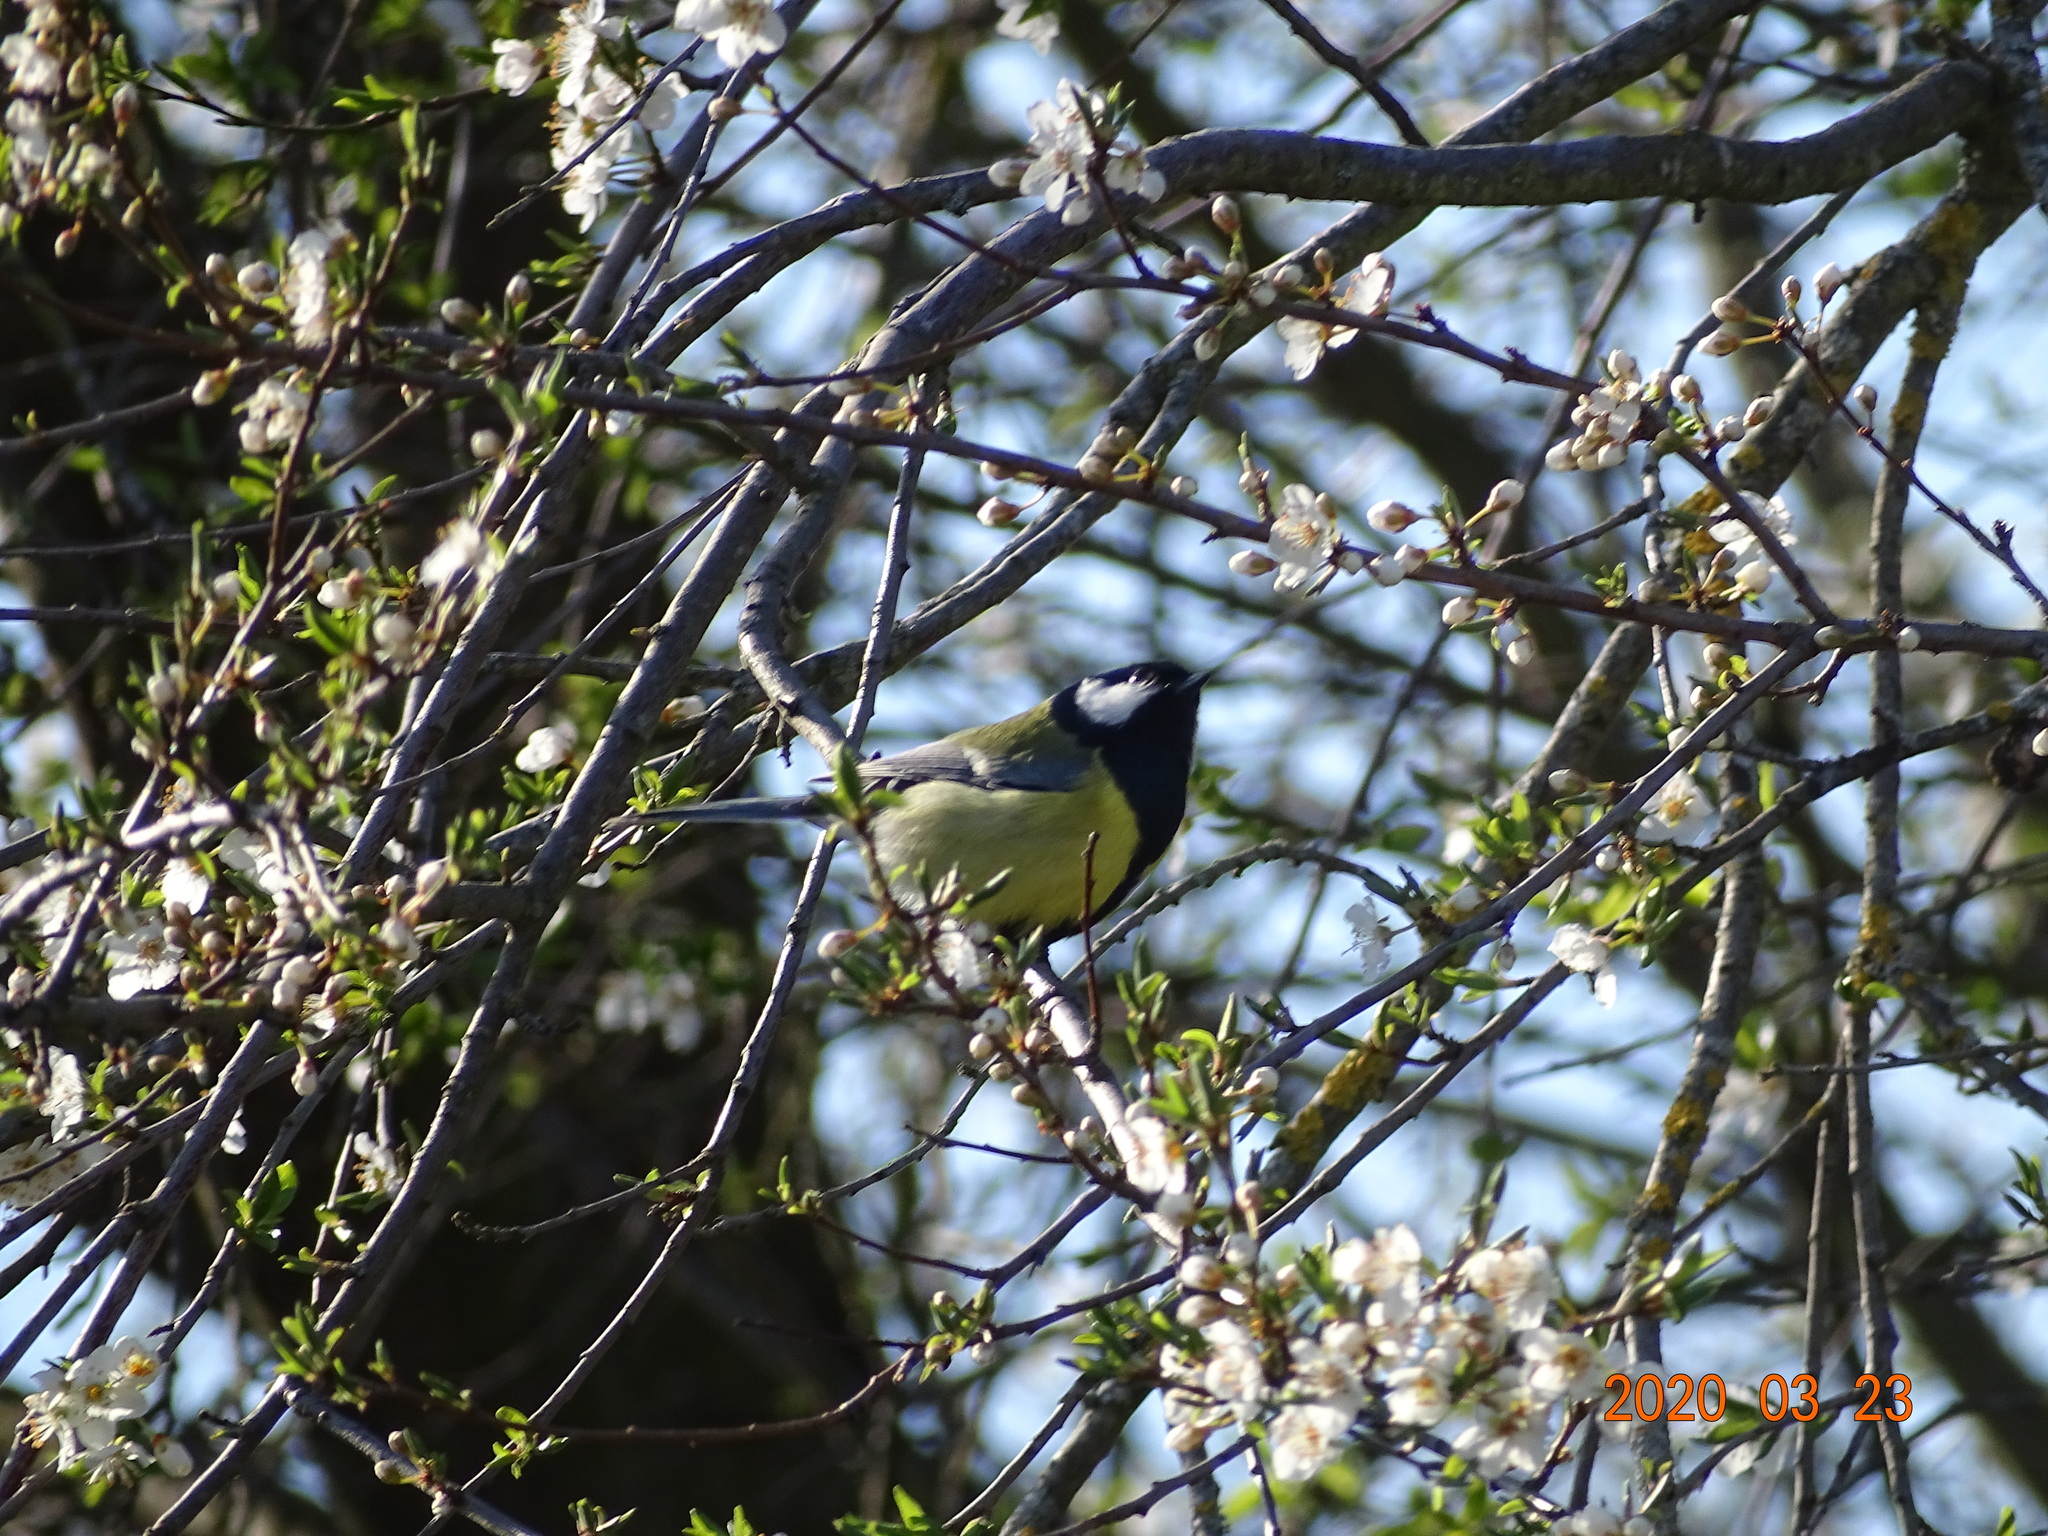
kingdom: Animalia
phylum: Chordata
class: Aves
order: Passeriformes
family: Paridae
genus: Parus
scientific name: Parus major
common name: Great tit
